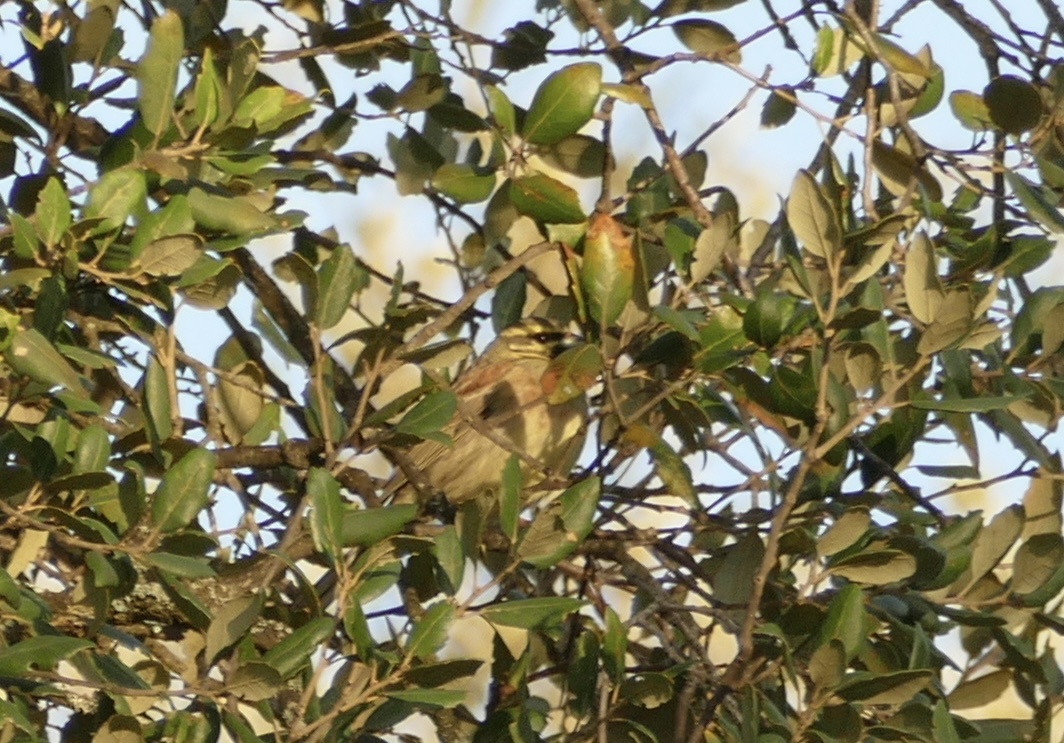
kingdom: Animalia
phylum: Chordata
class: Aves
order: Passeriformes
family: Emberizidae
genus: Emberiza
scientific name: Emberiza cirlus
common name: Cirl bunting
